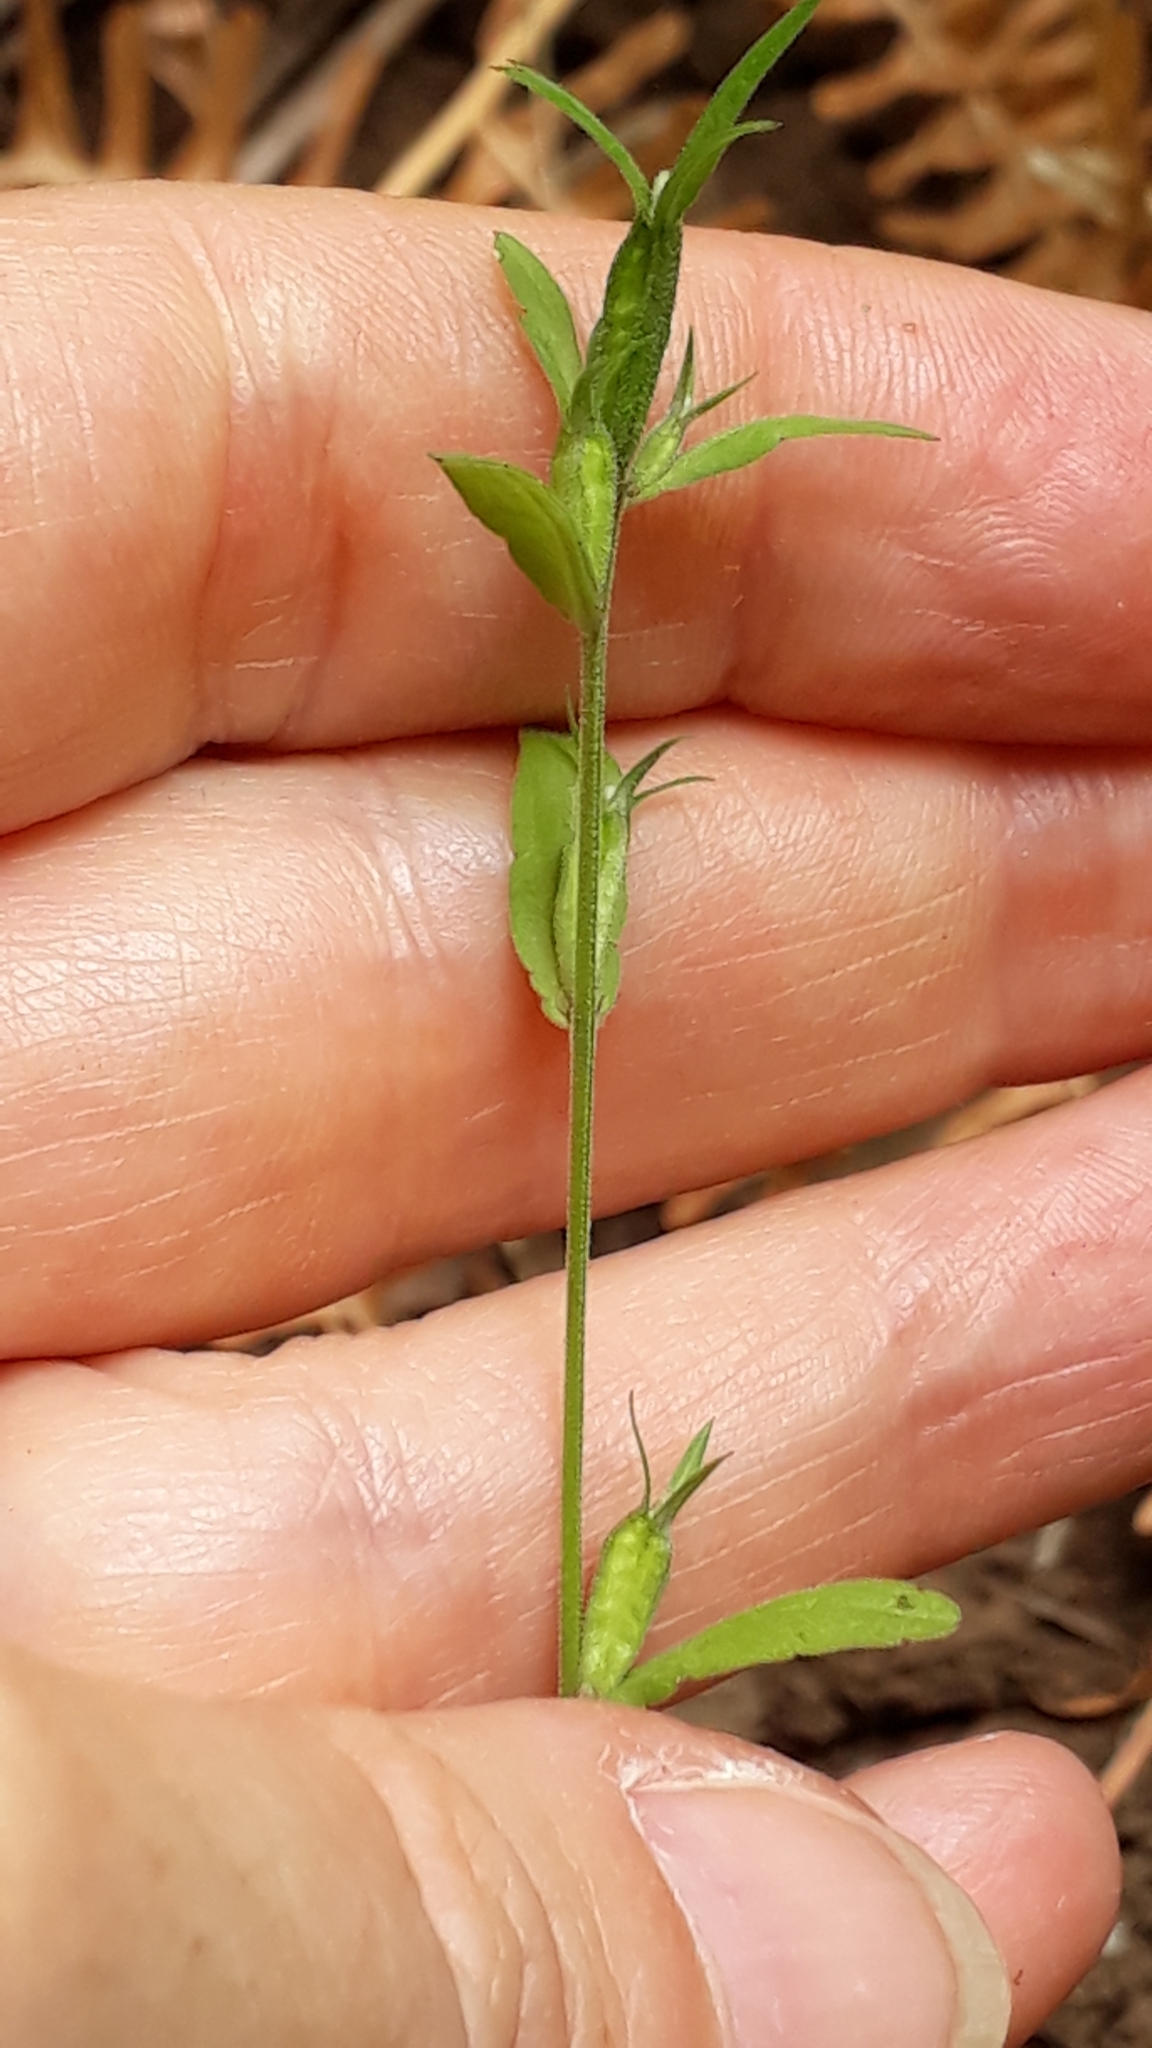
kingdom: Plantae
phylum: Tracheophyta
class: Magnoliopsida
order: Asterales
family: Campanulaceae
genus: Legousia
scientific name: Legousia falcata
